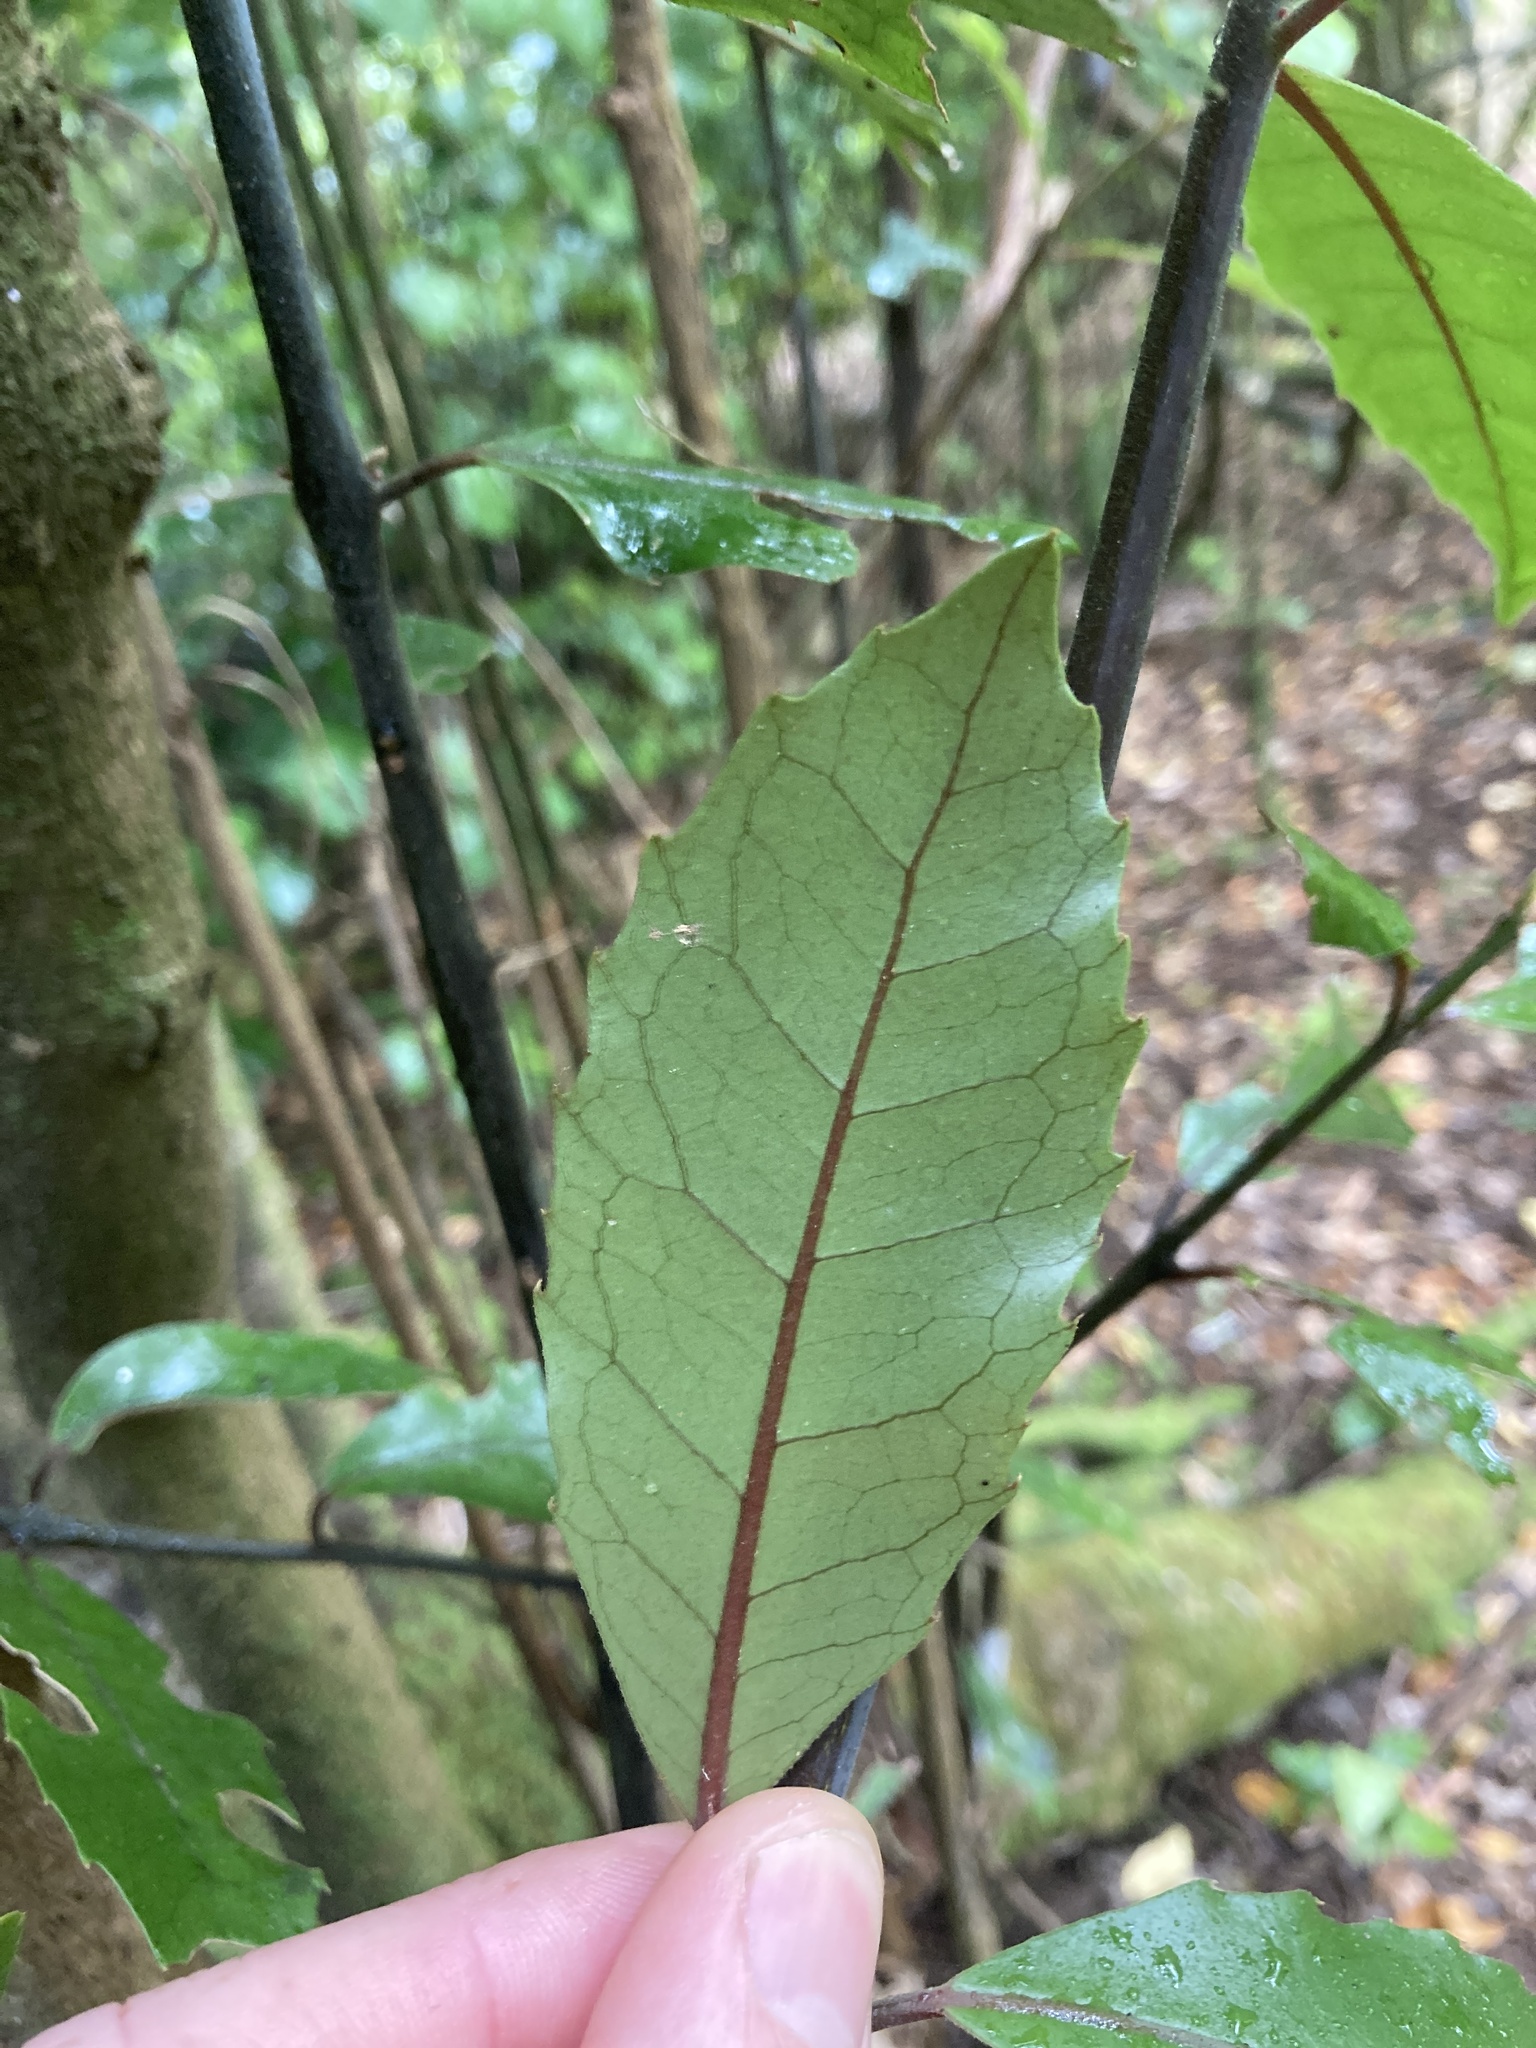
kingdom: Plantae
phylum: Tracheophyta
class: Magnoliopsida
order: Laurales
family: Monimiaceae
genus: Hedycarya
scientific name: Hedycarya arborea
